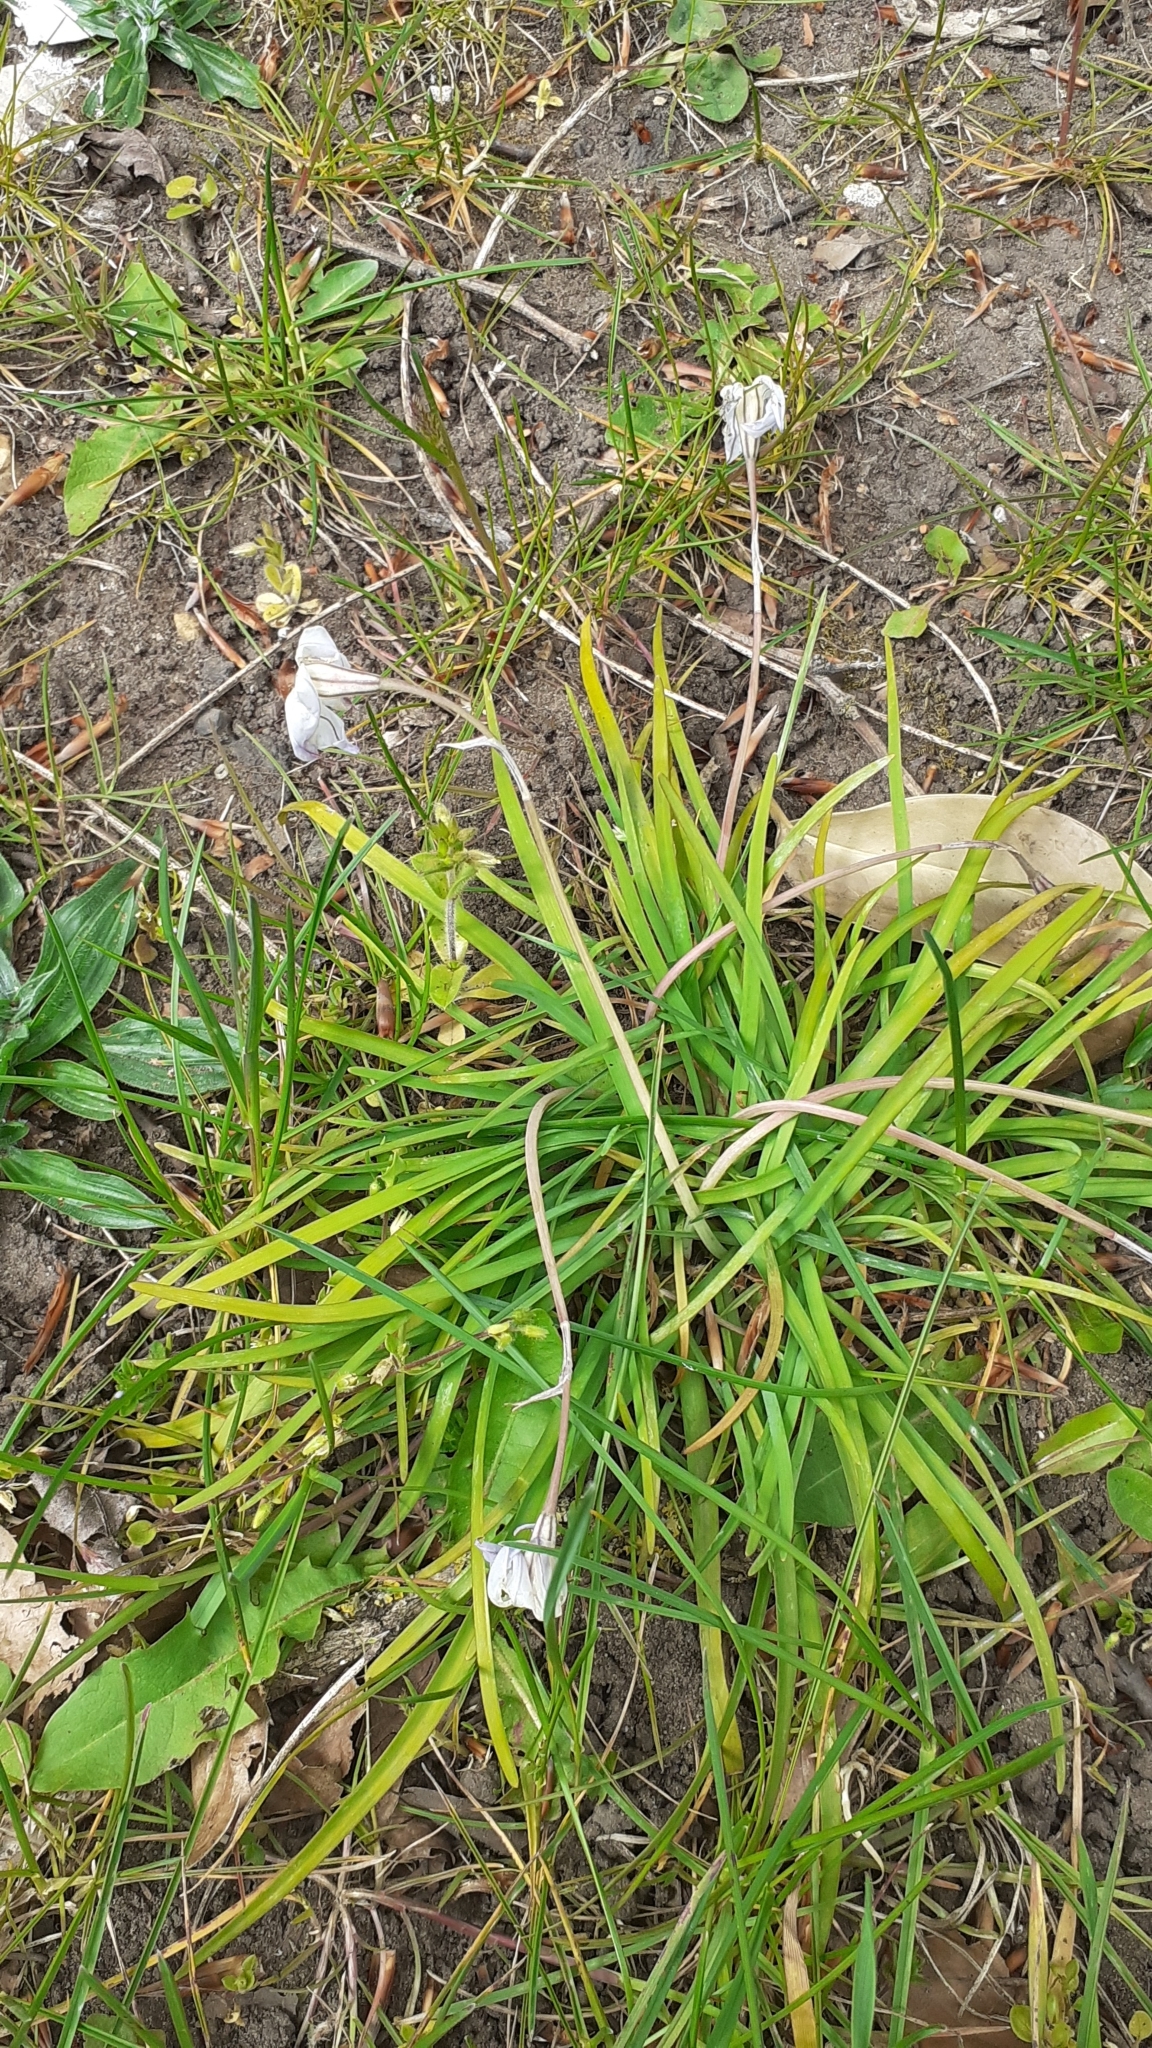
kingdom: Plantae
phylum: Tracheophyta
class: Liliopsida
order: Asparagales
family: Amaryllidaceae
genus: Ipheion
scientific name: Ipheion uniflorum
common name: Spring starflower
